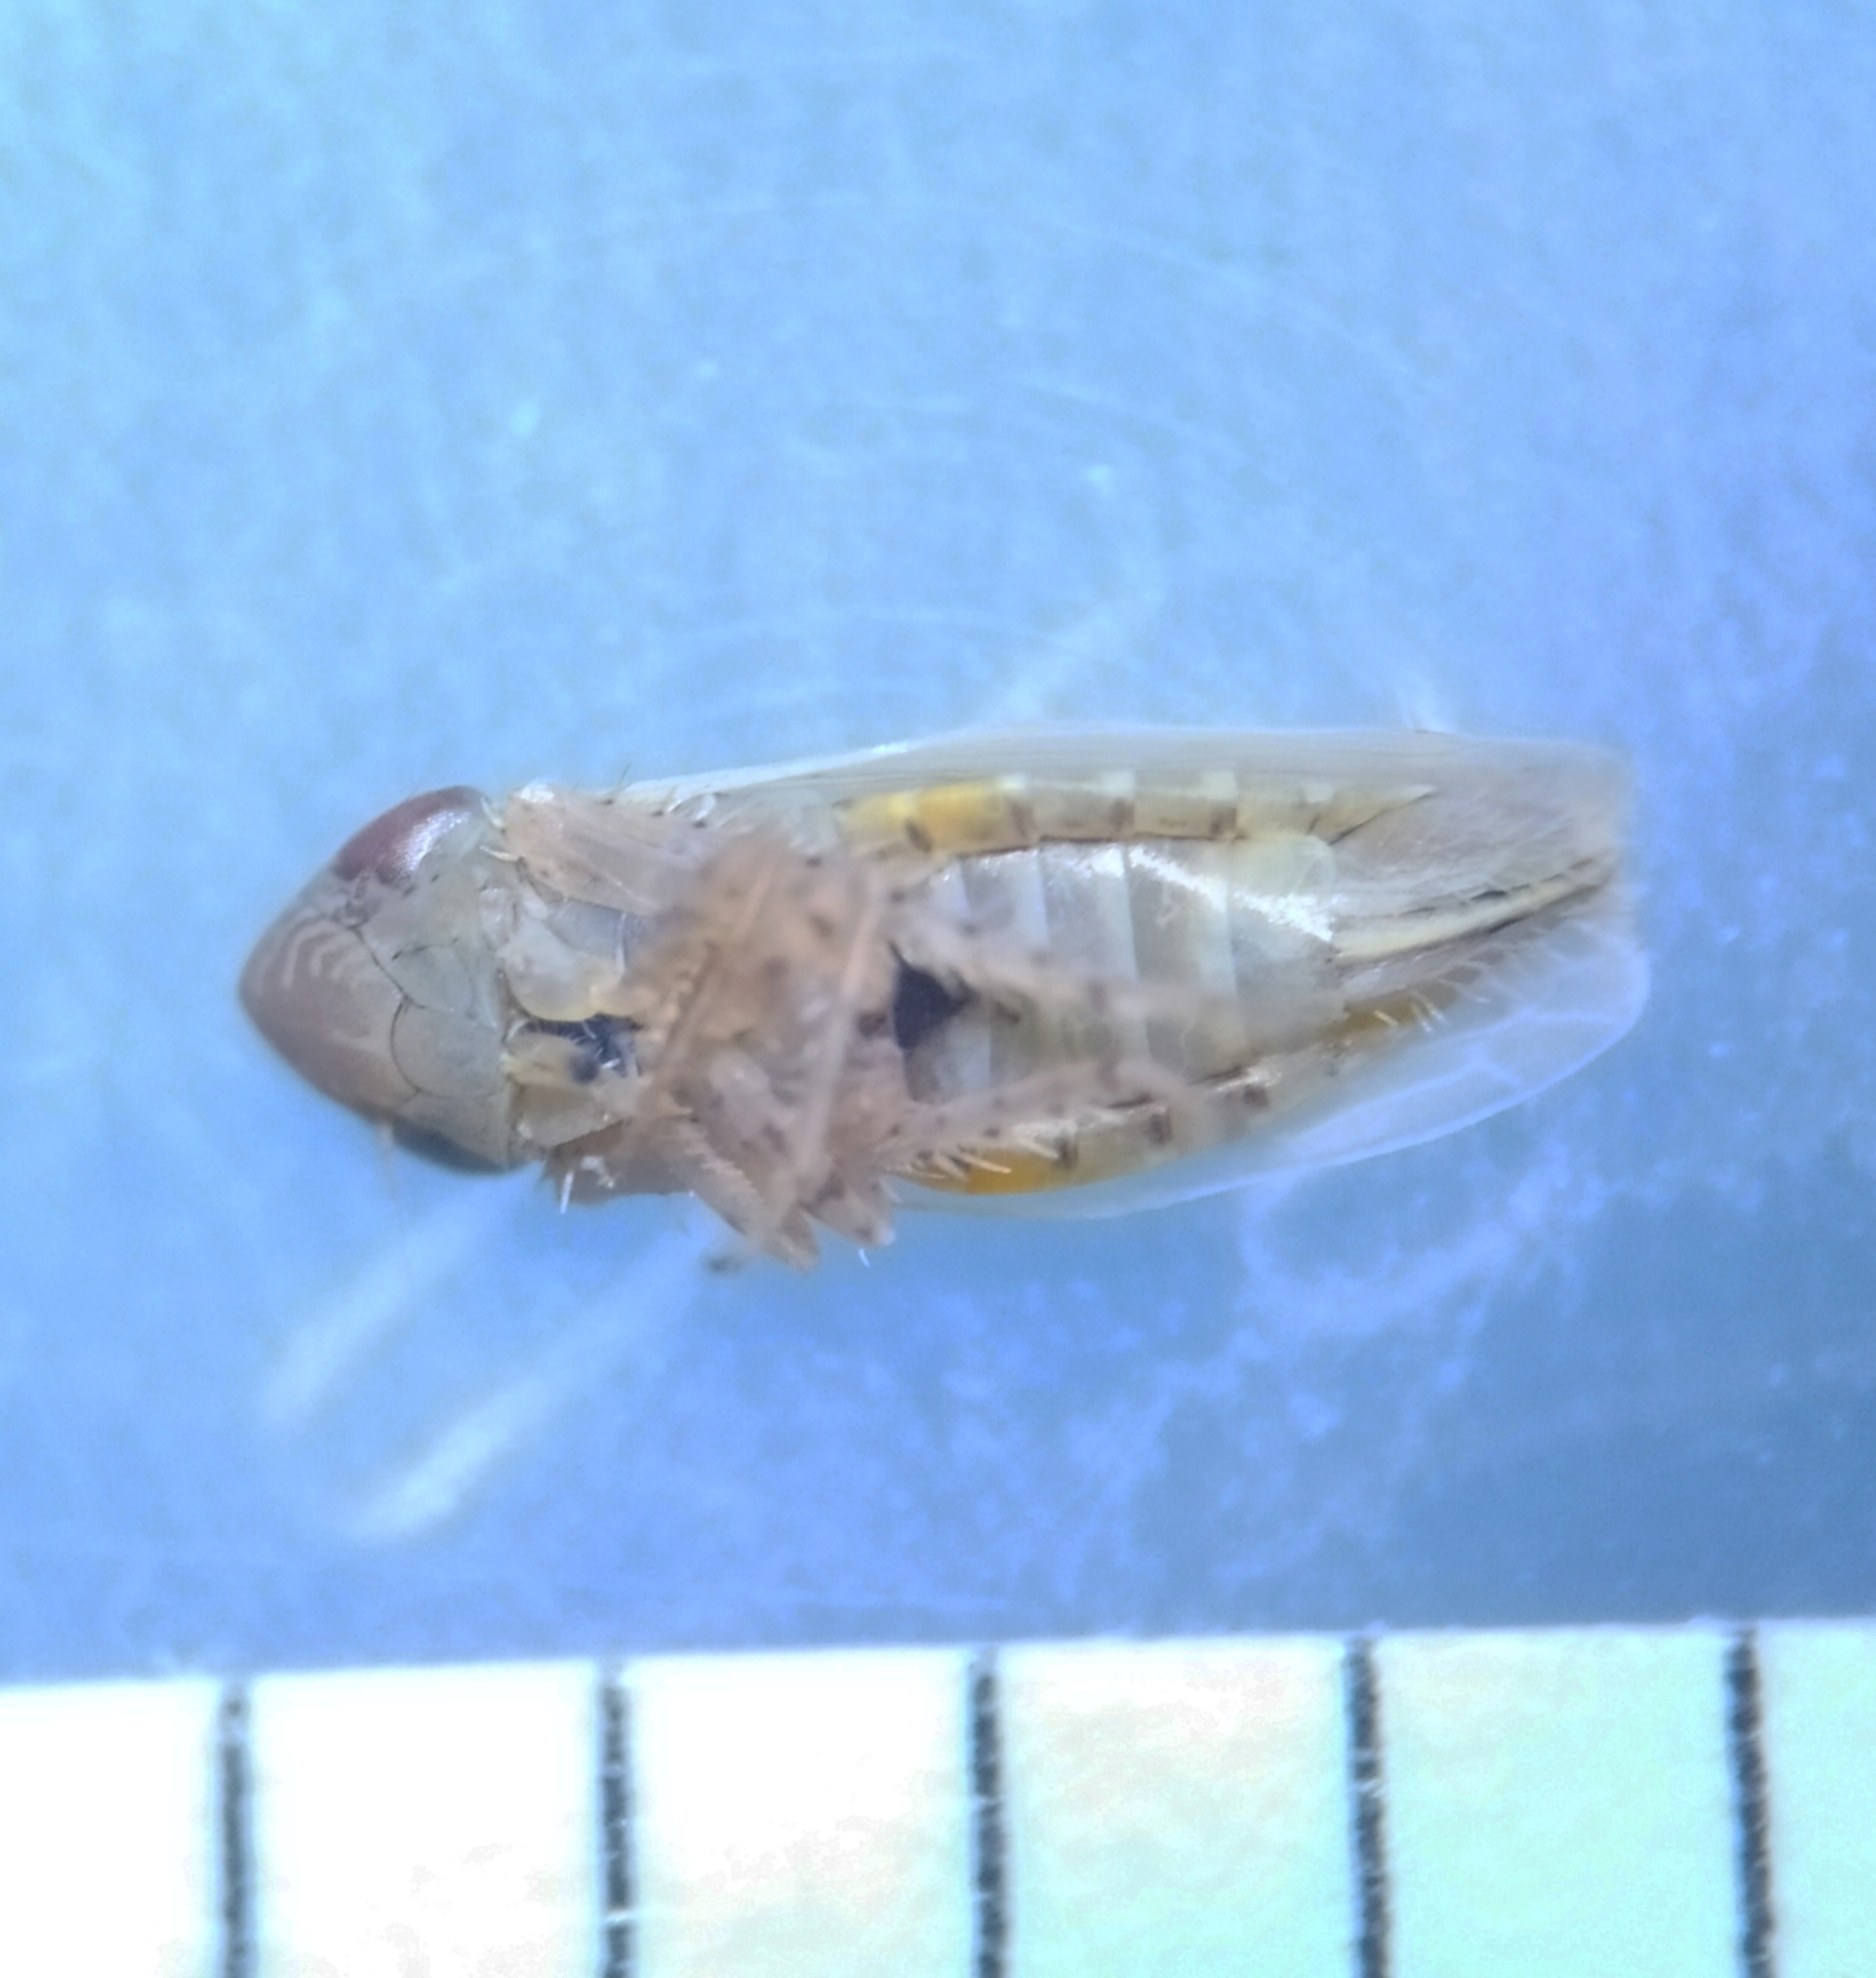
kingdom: Animalia
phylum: Arthropoda
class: Insecta
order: Hemiptera
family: Cicadellidae
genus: Psammotettix
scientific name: Psammotettix
